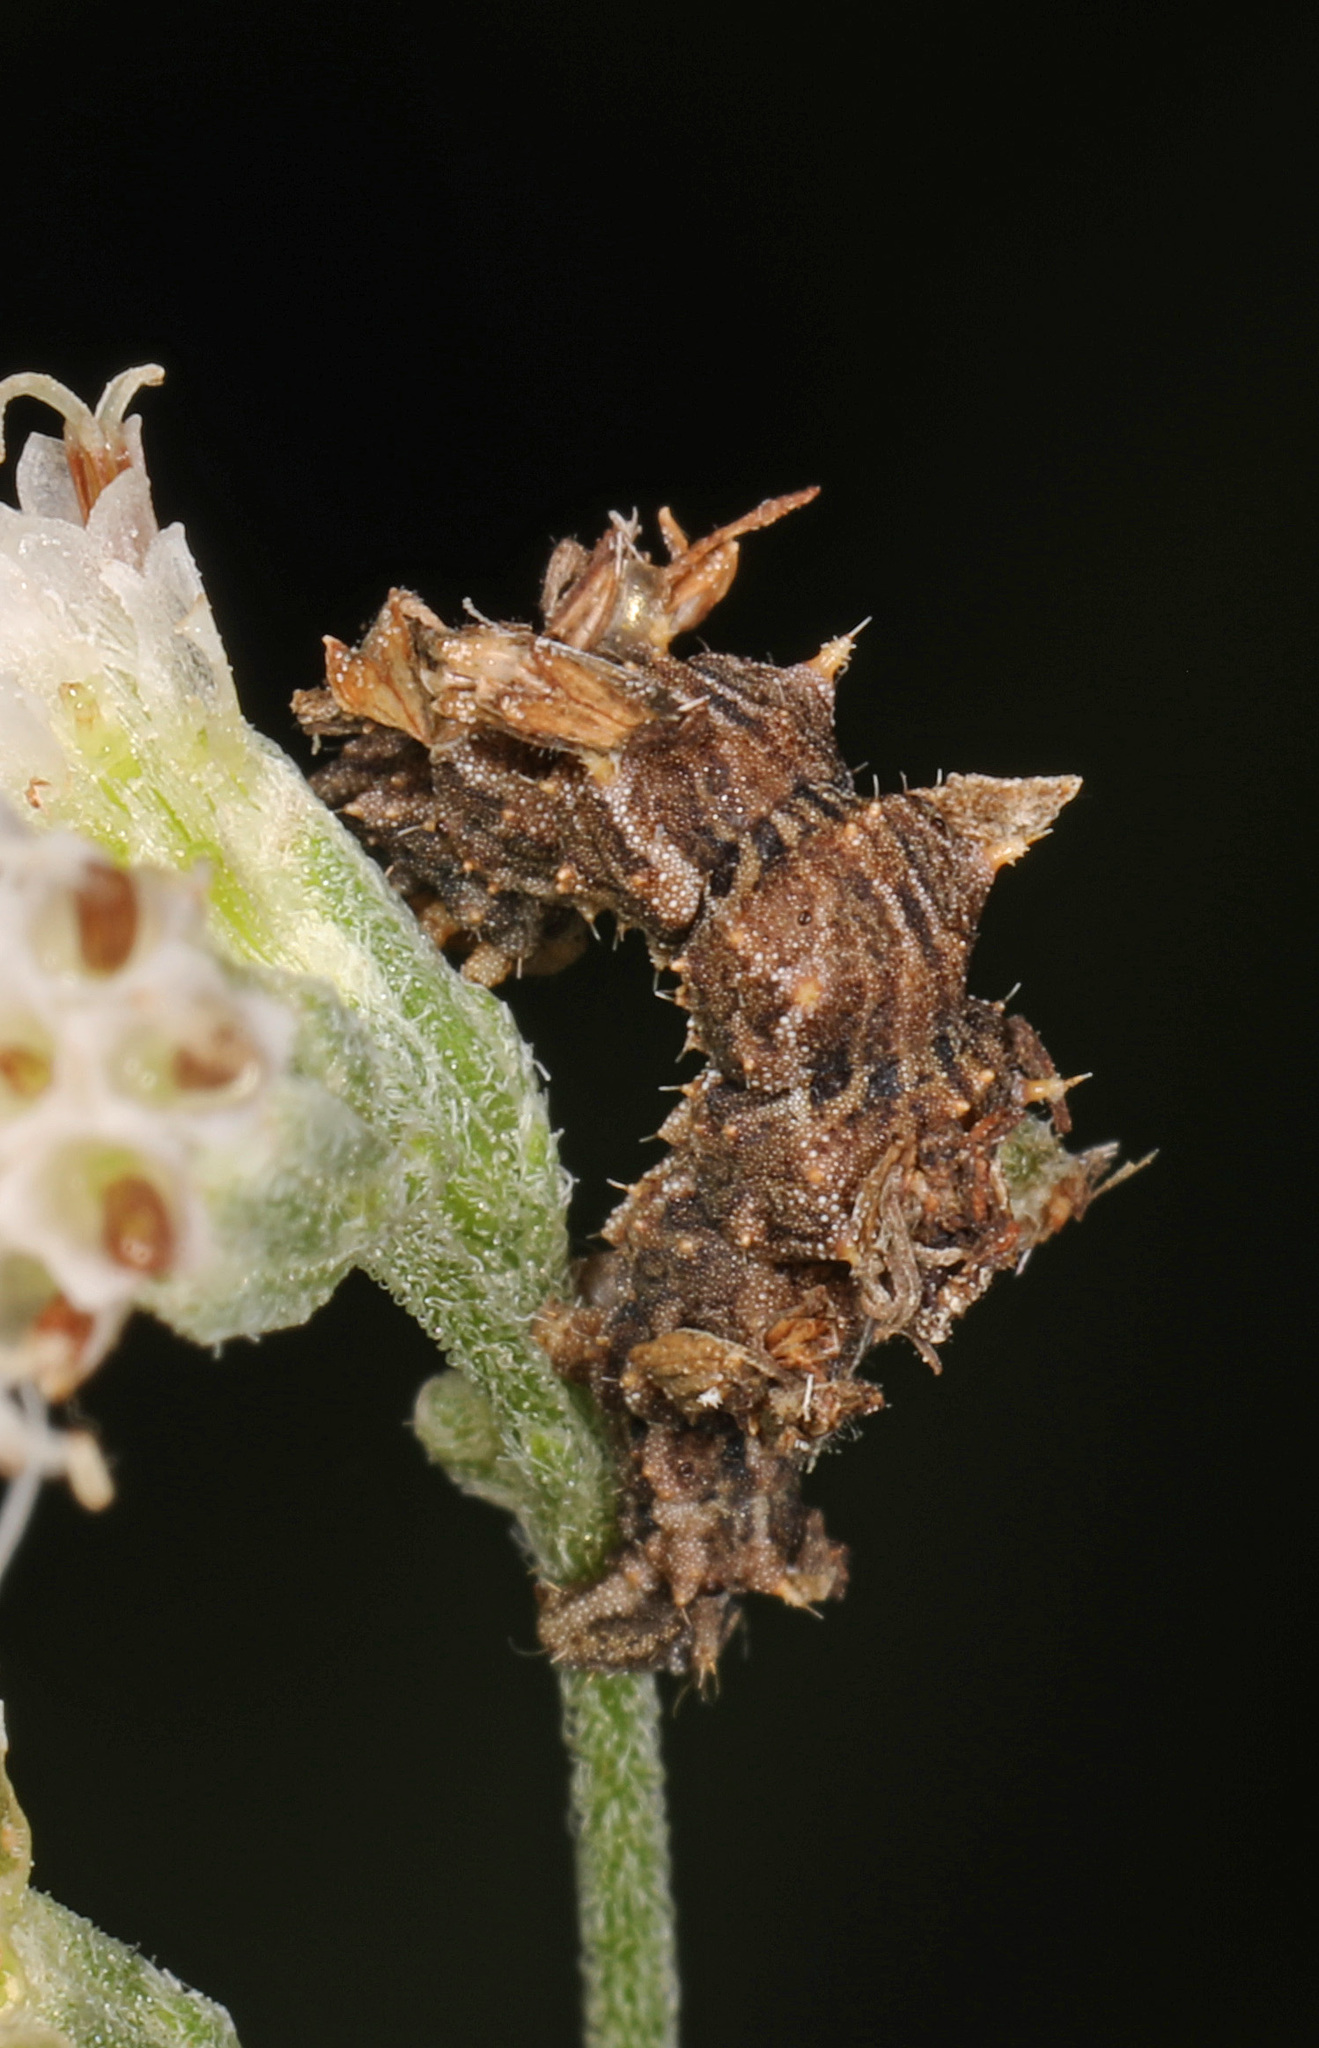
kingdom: Animalia
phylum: Arthropoda
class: Insecta
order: Lepidoptera
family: Geometridae
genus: Synchlora
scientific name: Synchlora aerata
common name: Wavy-lined emerald
